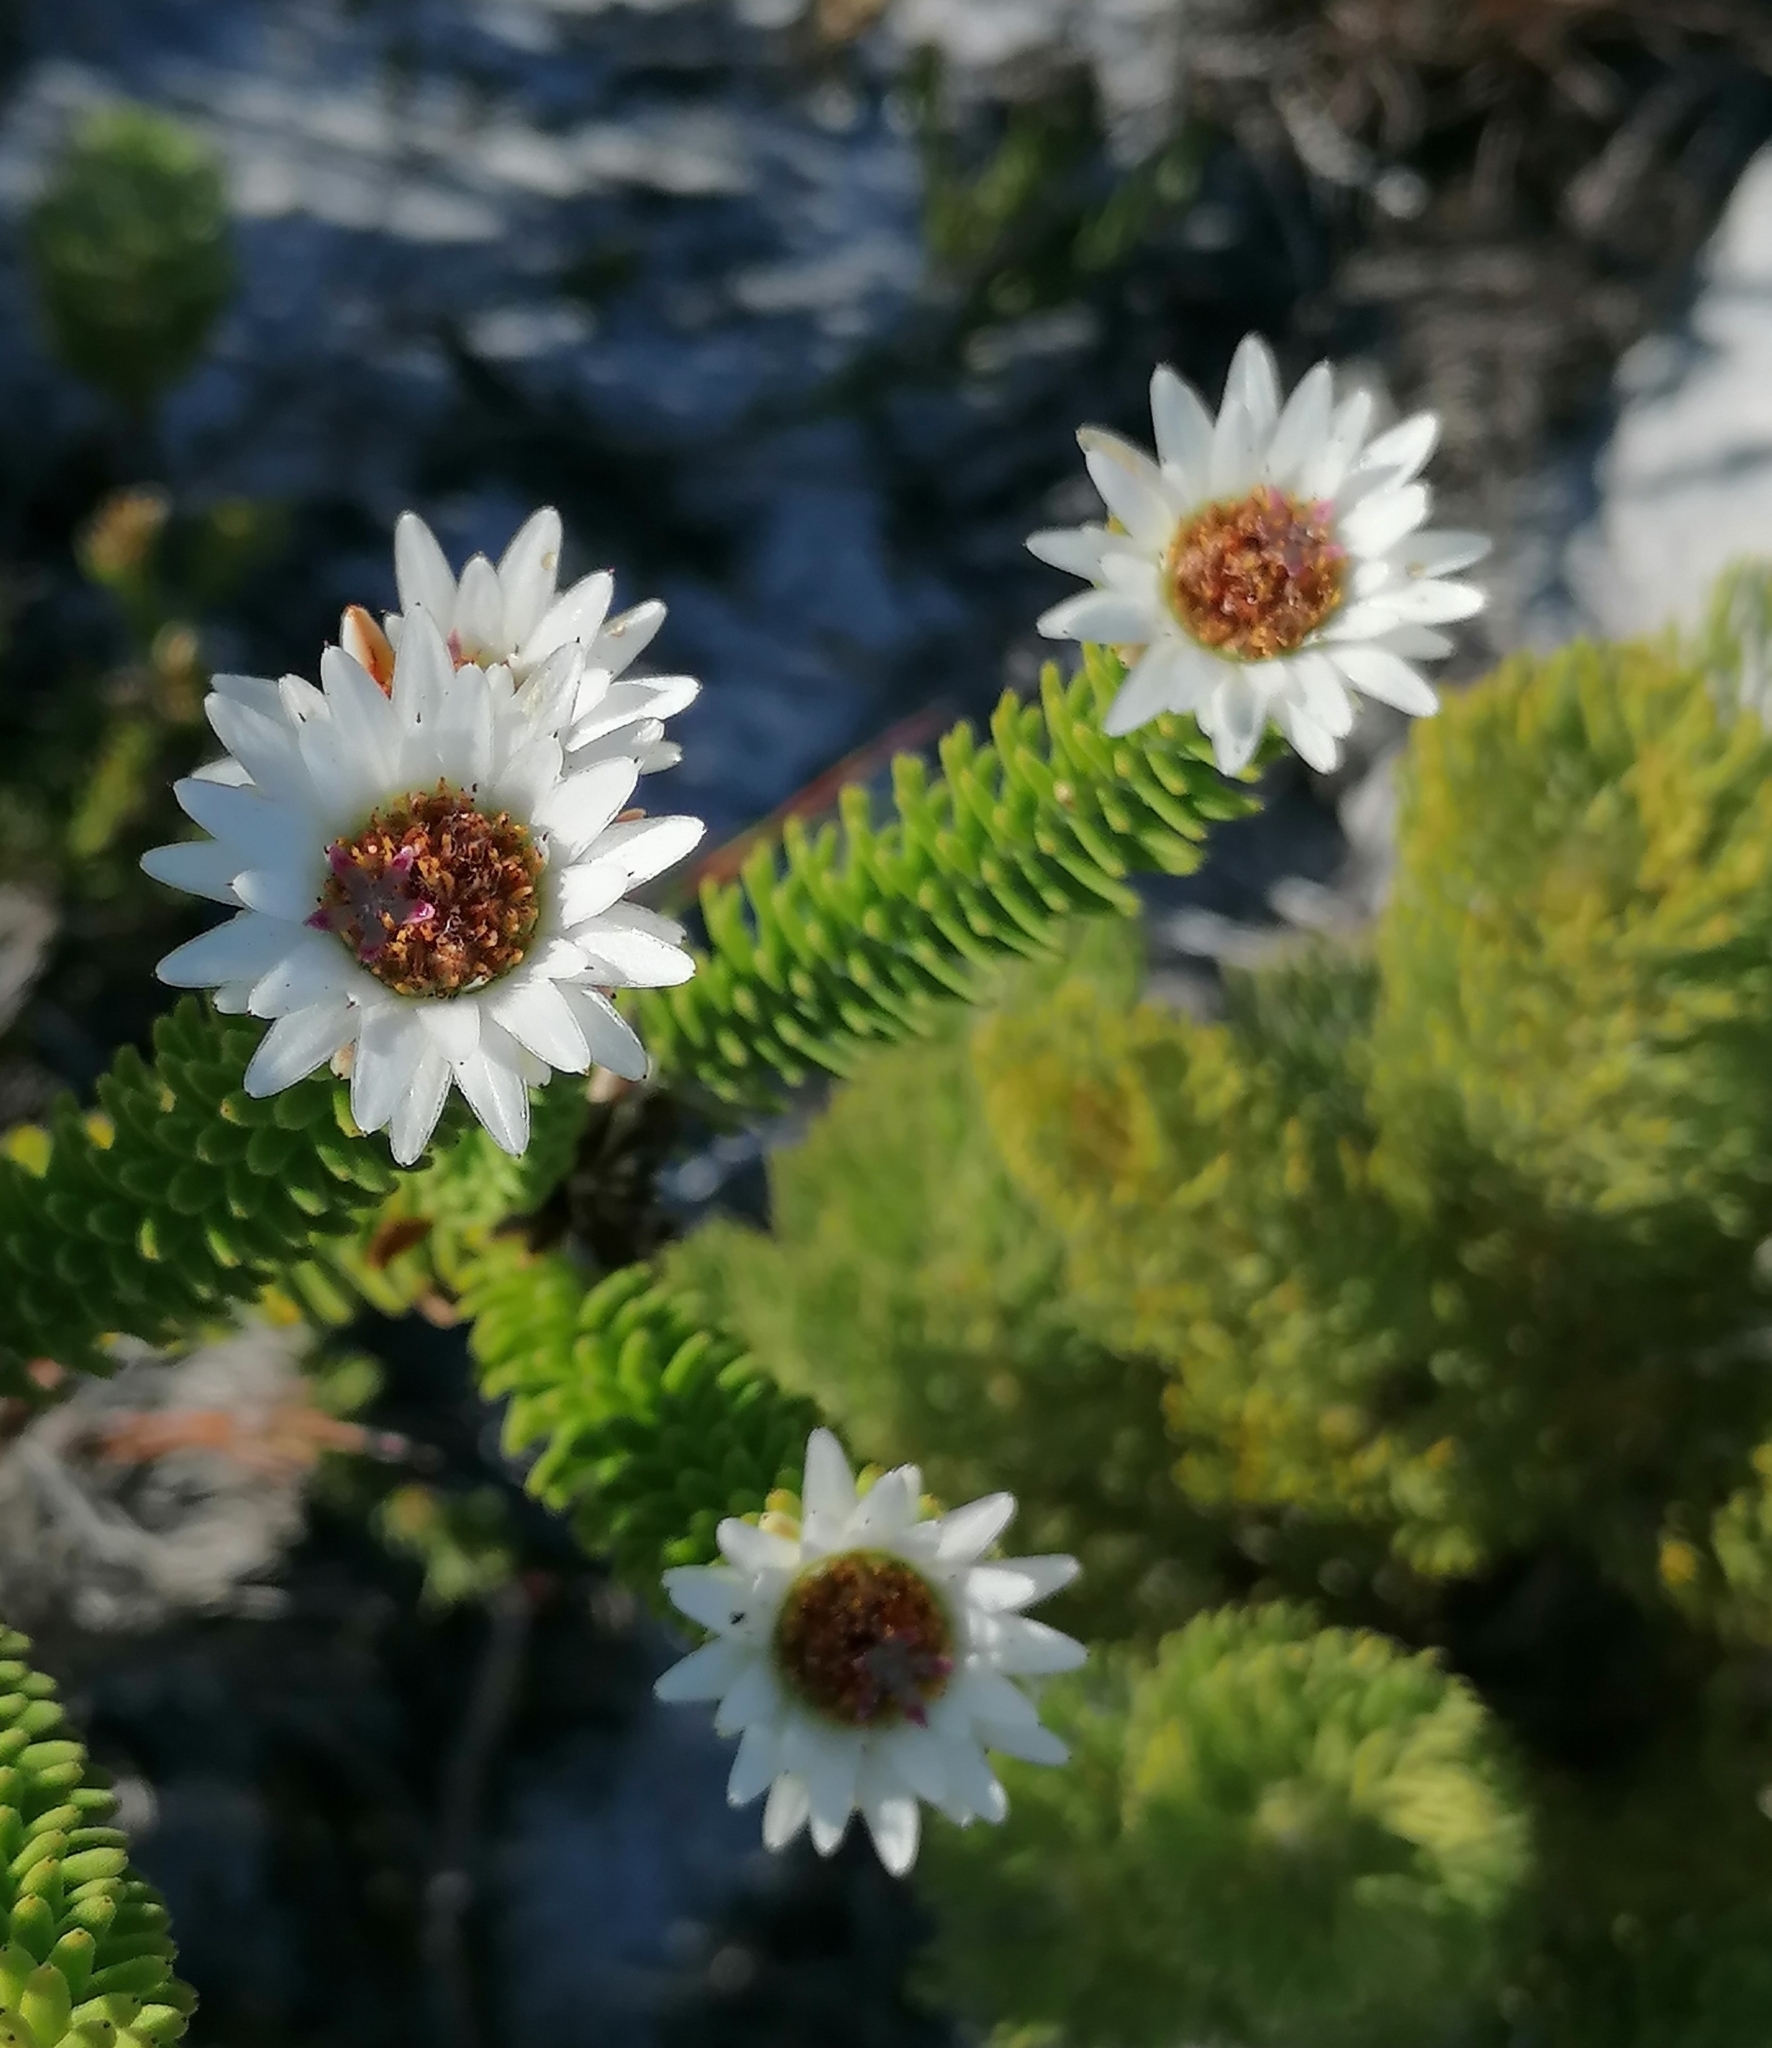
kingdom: Plantae
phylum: Tracheophyta
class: Magnoliopsida
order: Bruniales
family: Bruniaceae
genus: Staavia
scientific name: Staavia dodii
